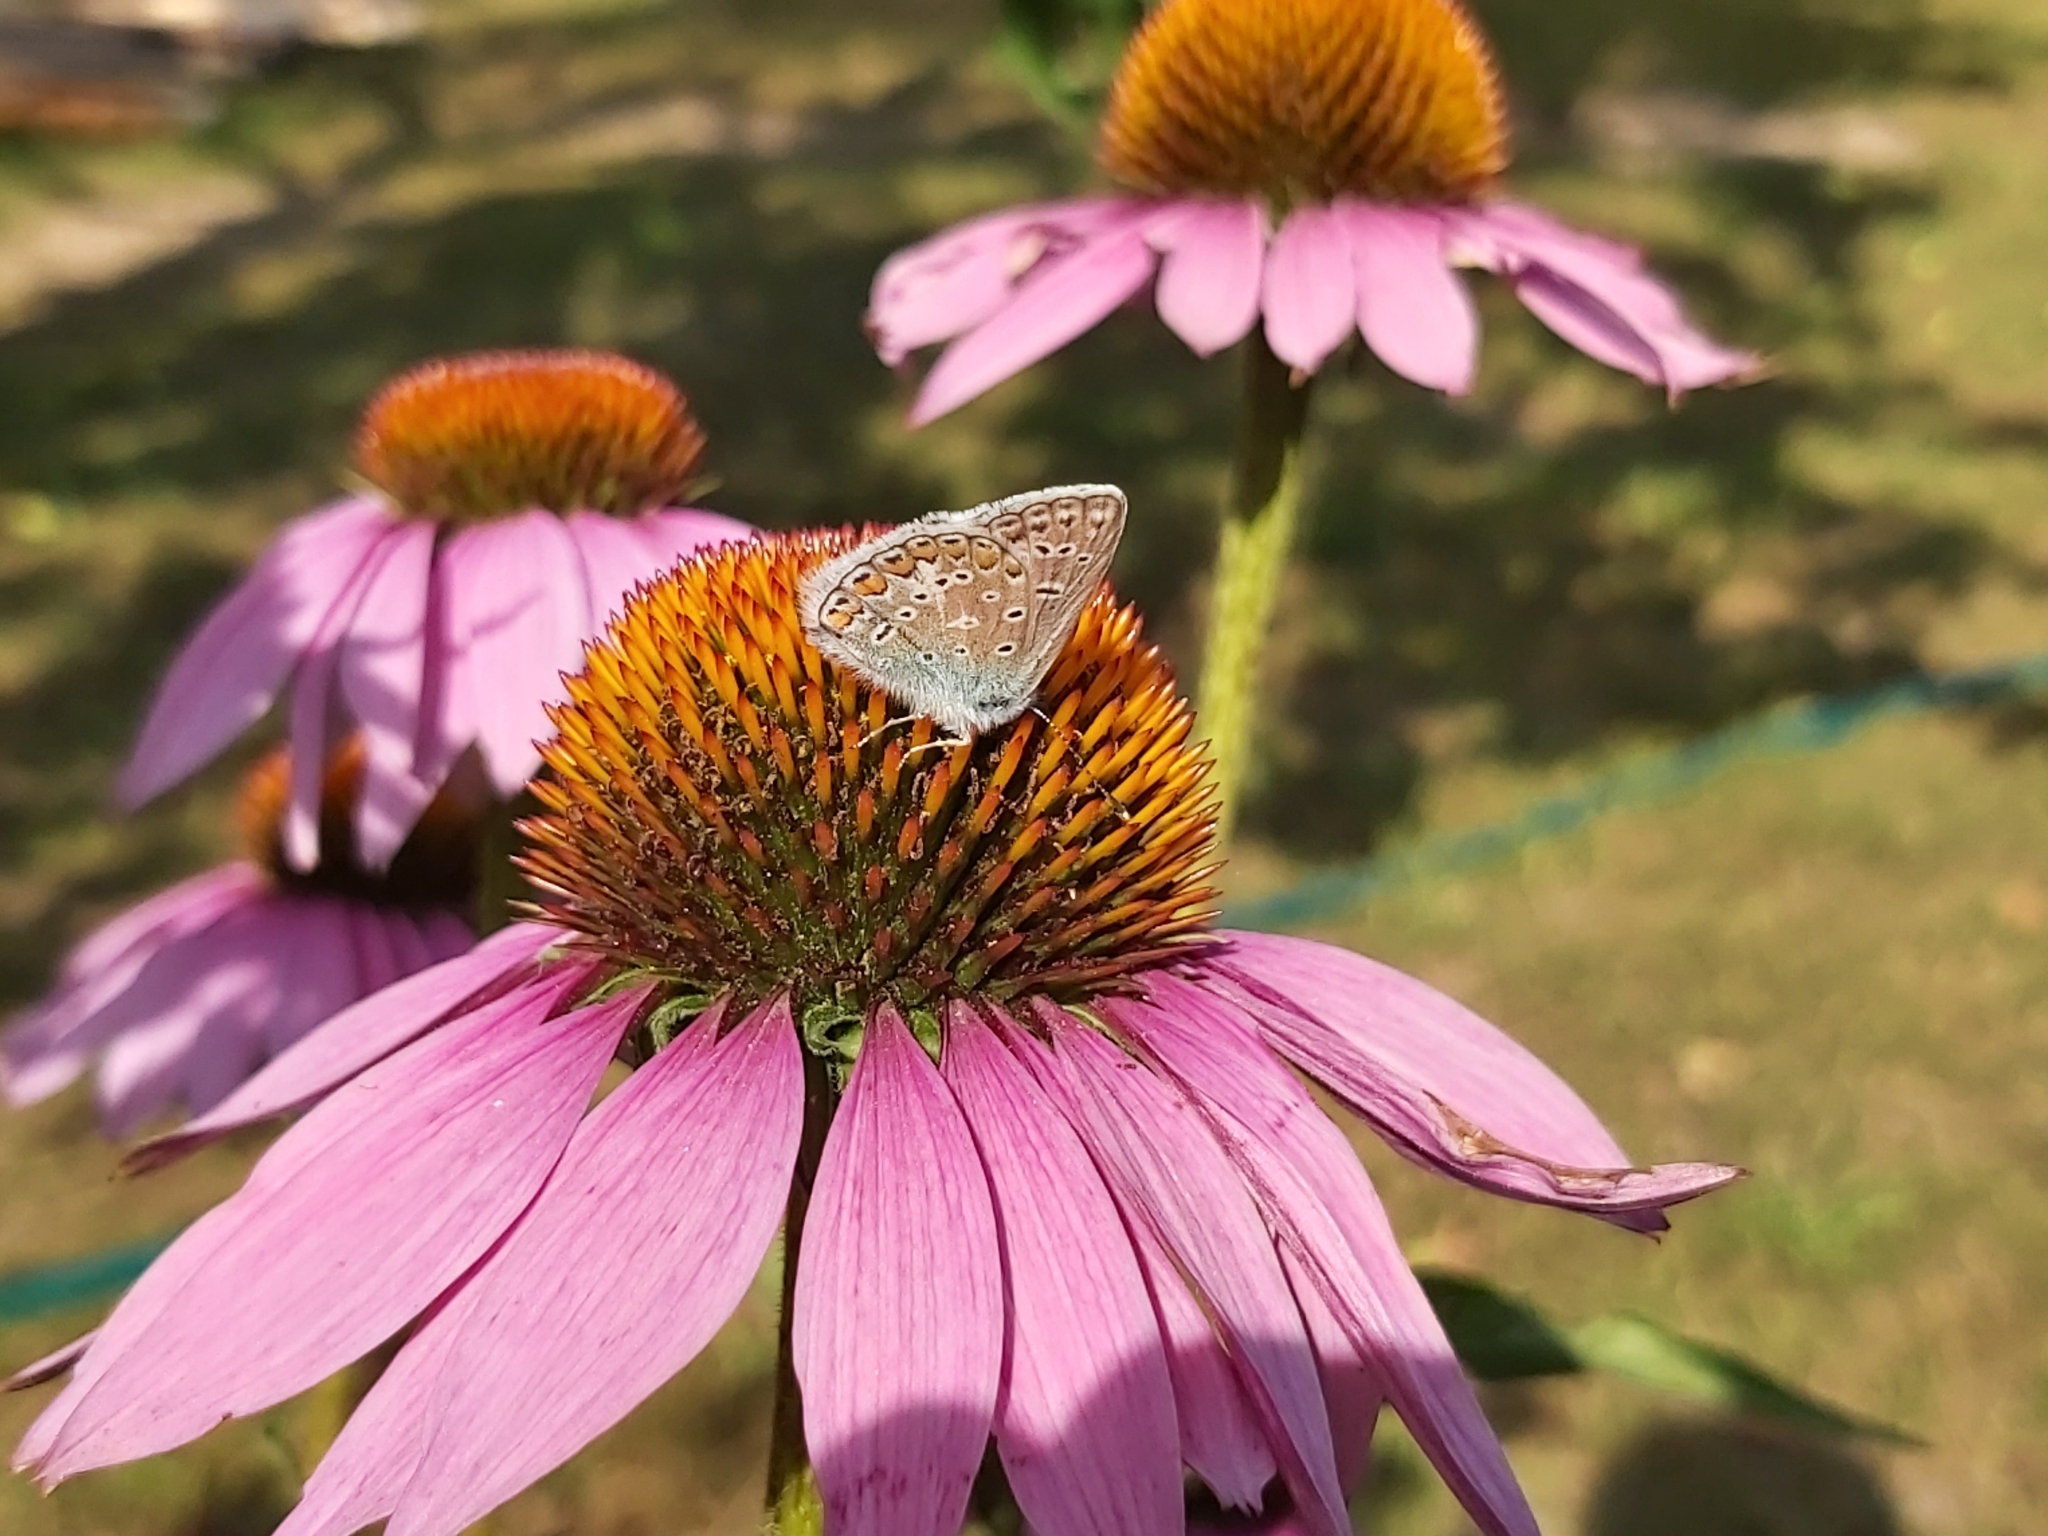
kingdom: Animalia
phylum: Arthropoda
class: Insecta
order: Lepidoptera
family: Lycaenidae
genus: Polyommatus
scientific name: Polyommatus icarus
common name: Common blue
